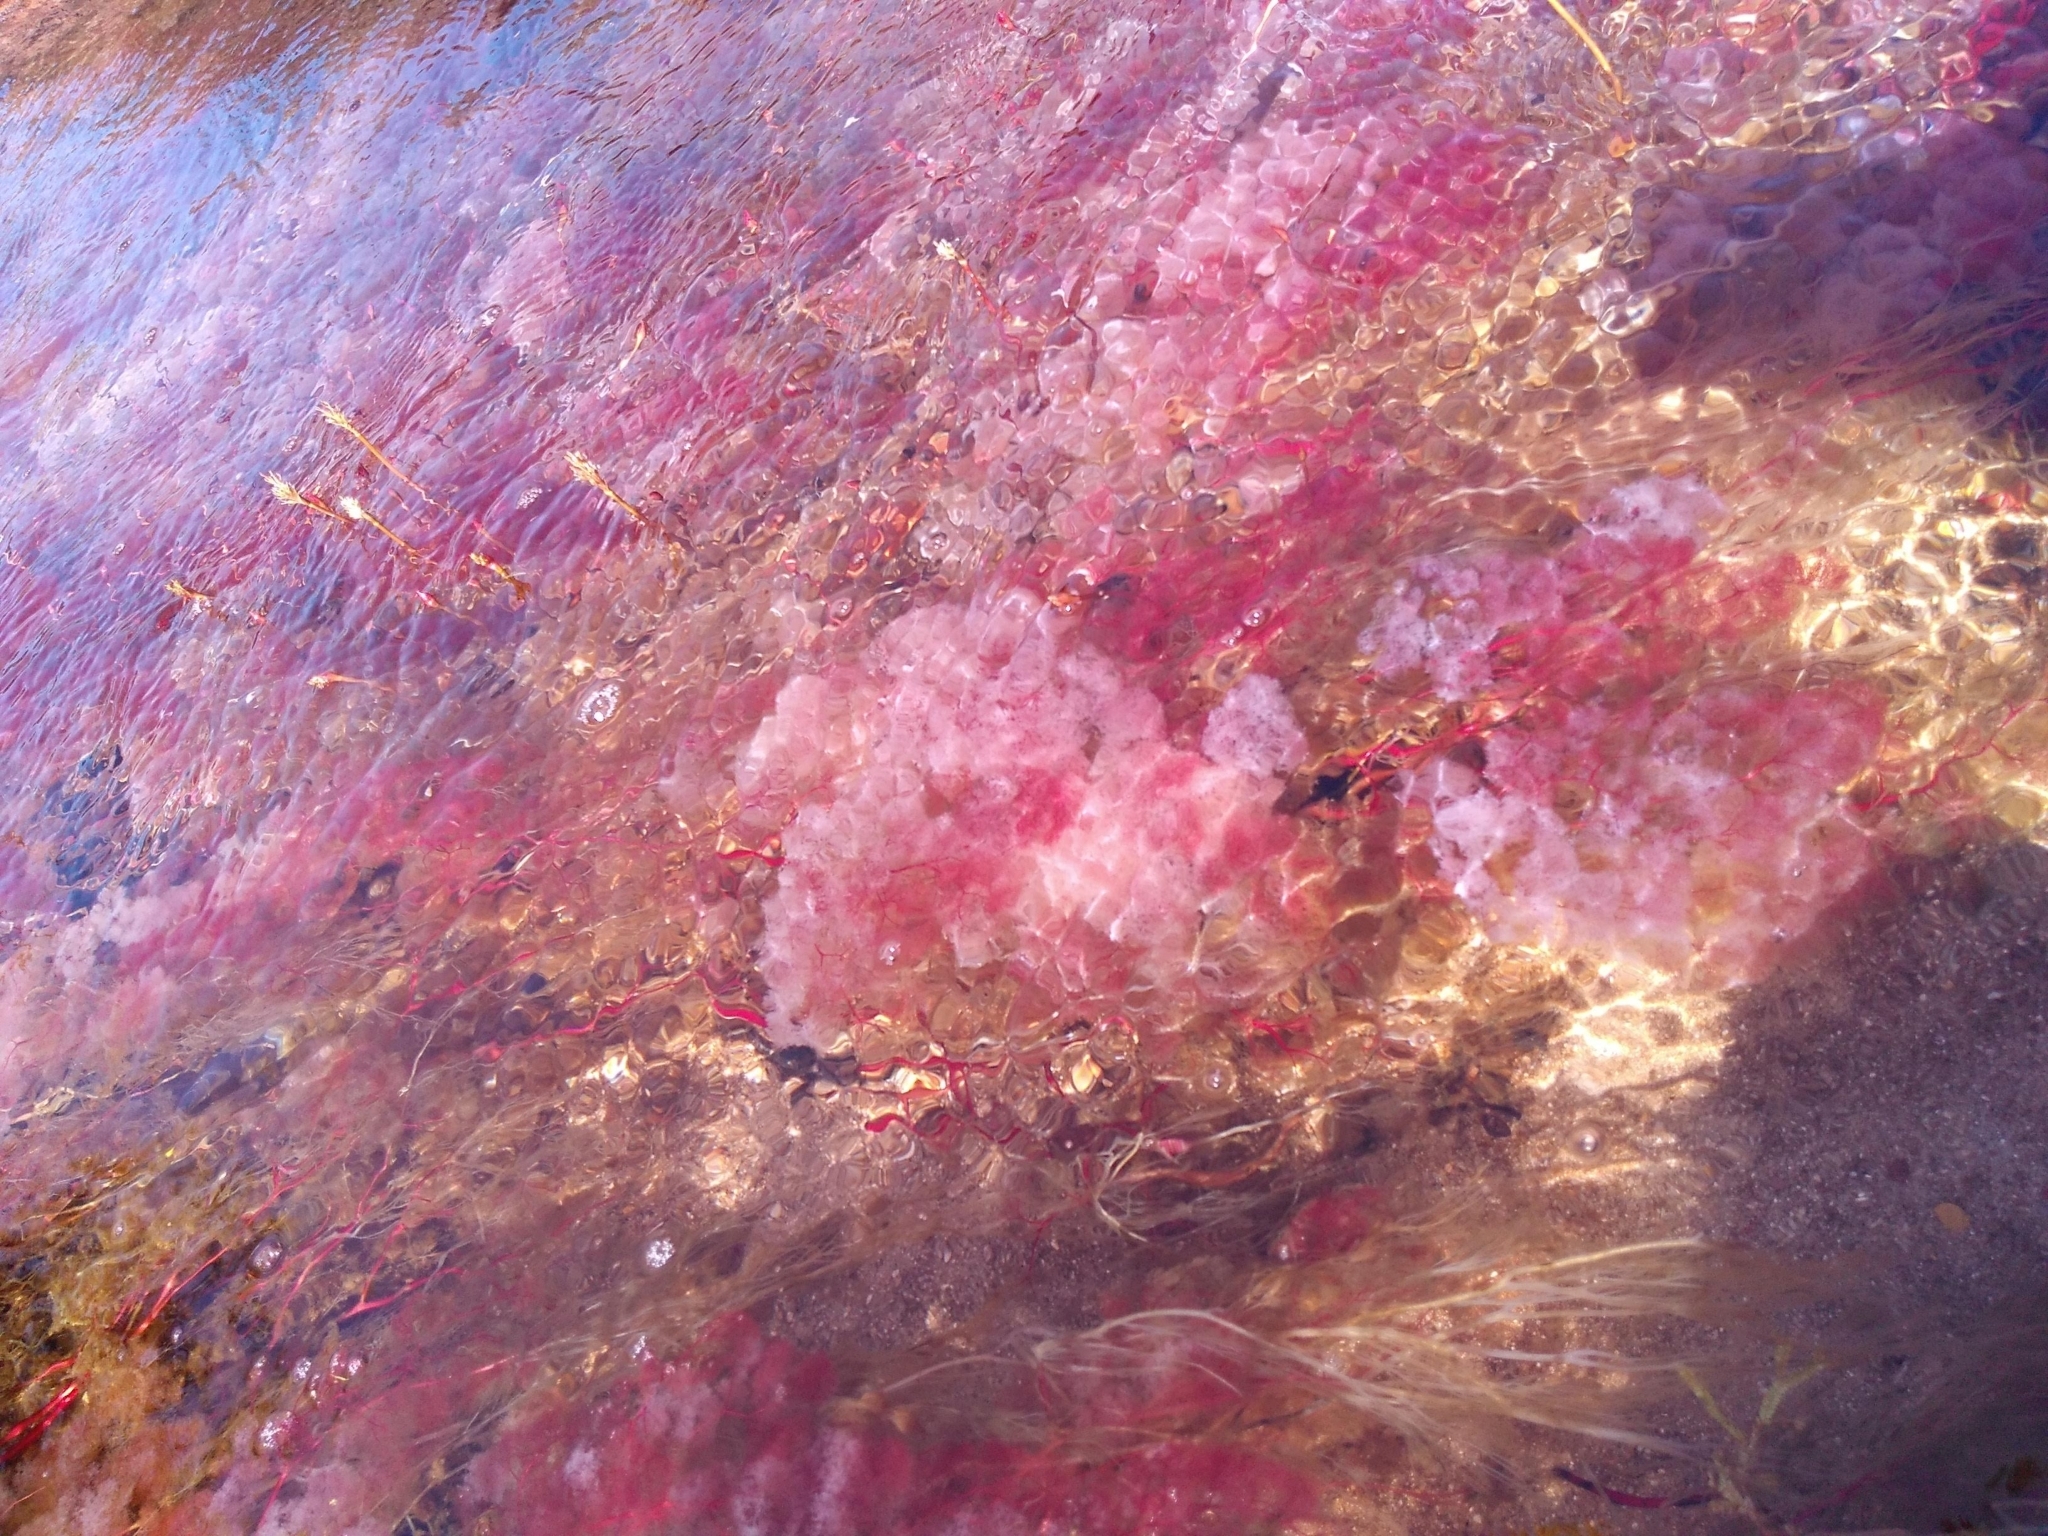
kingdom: Plantae
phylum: Tracheophyta
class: Magnoliopsida
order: Malpighiales
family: Podostemaceae
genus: Rhyncholacis
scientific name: Rhyncholacis clavigera
